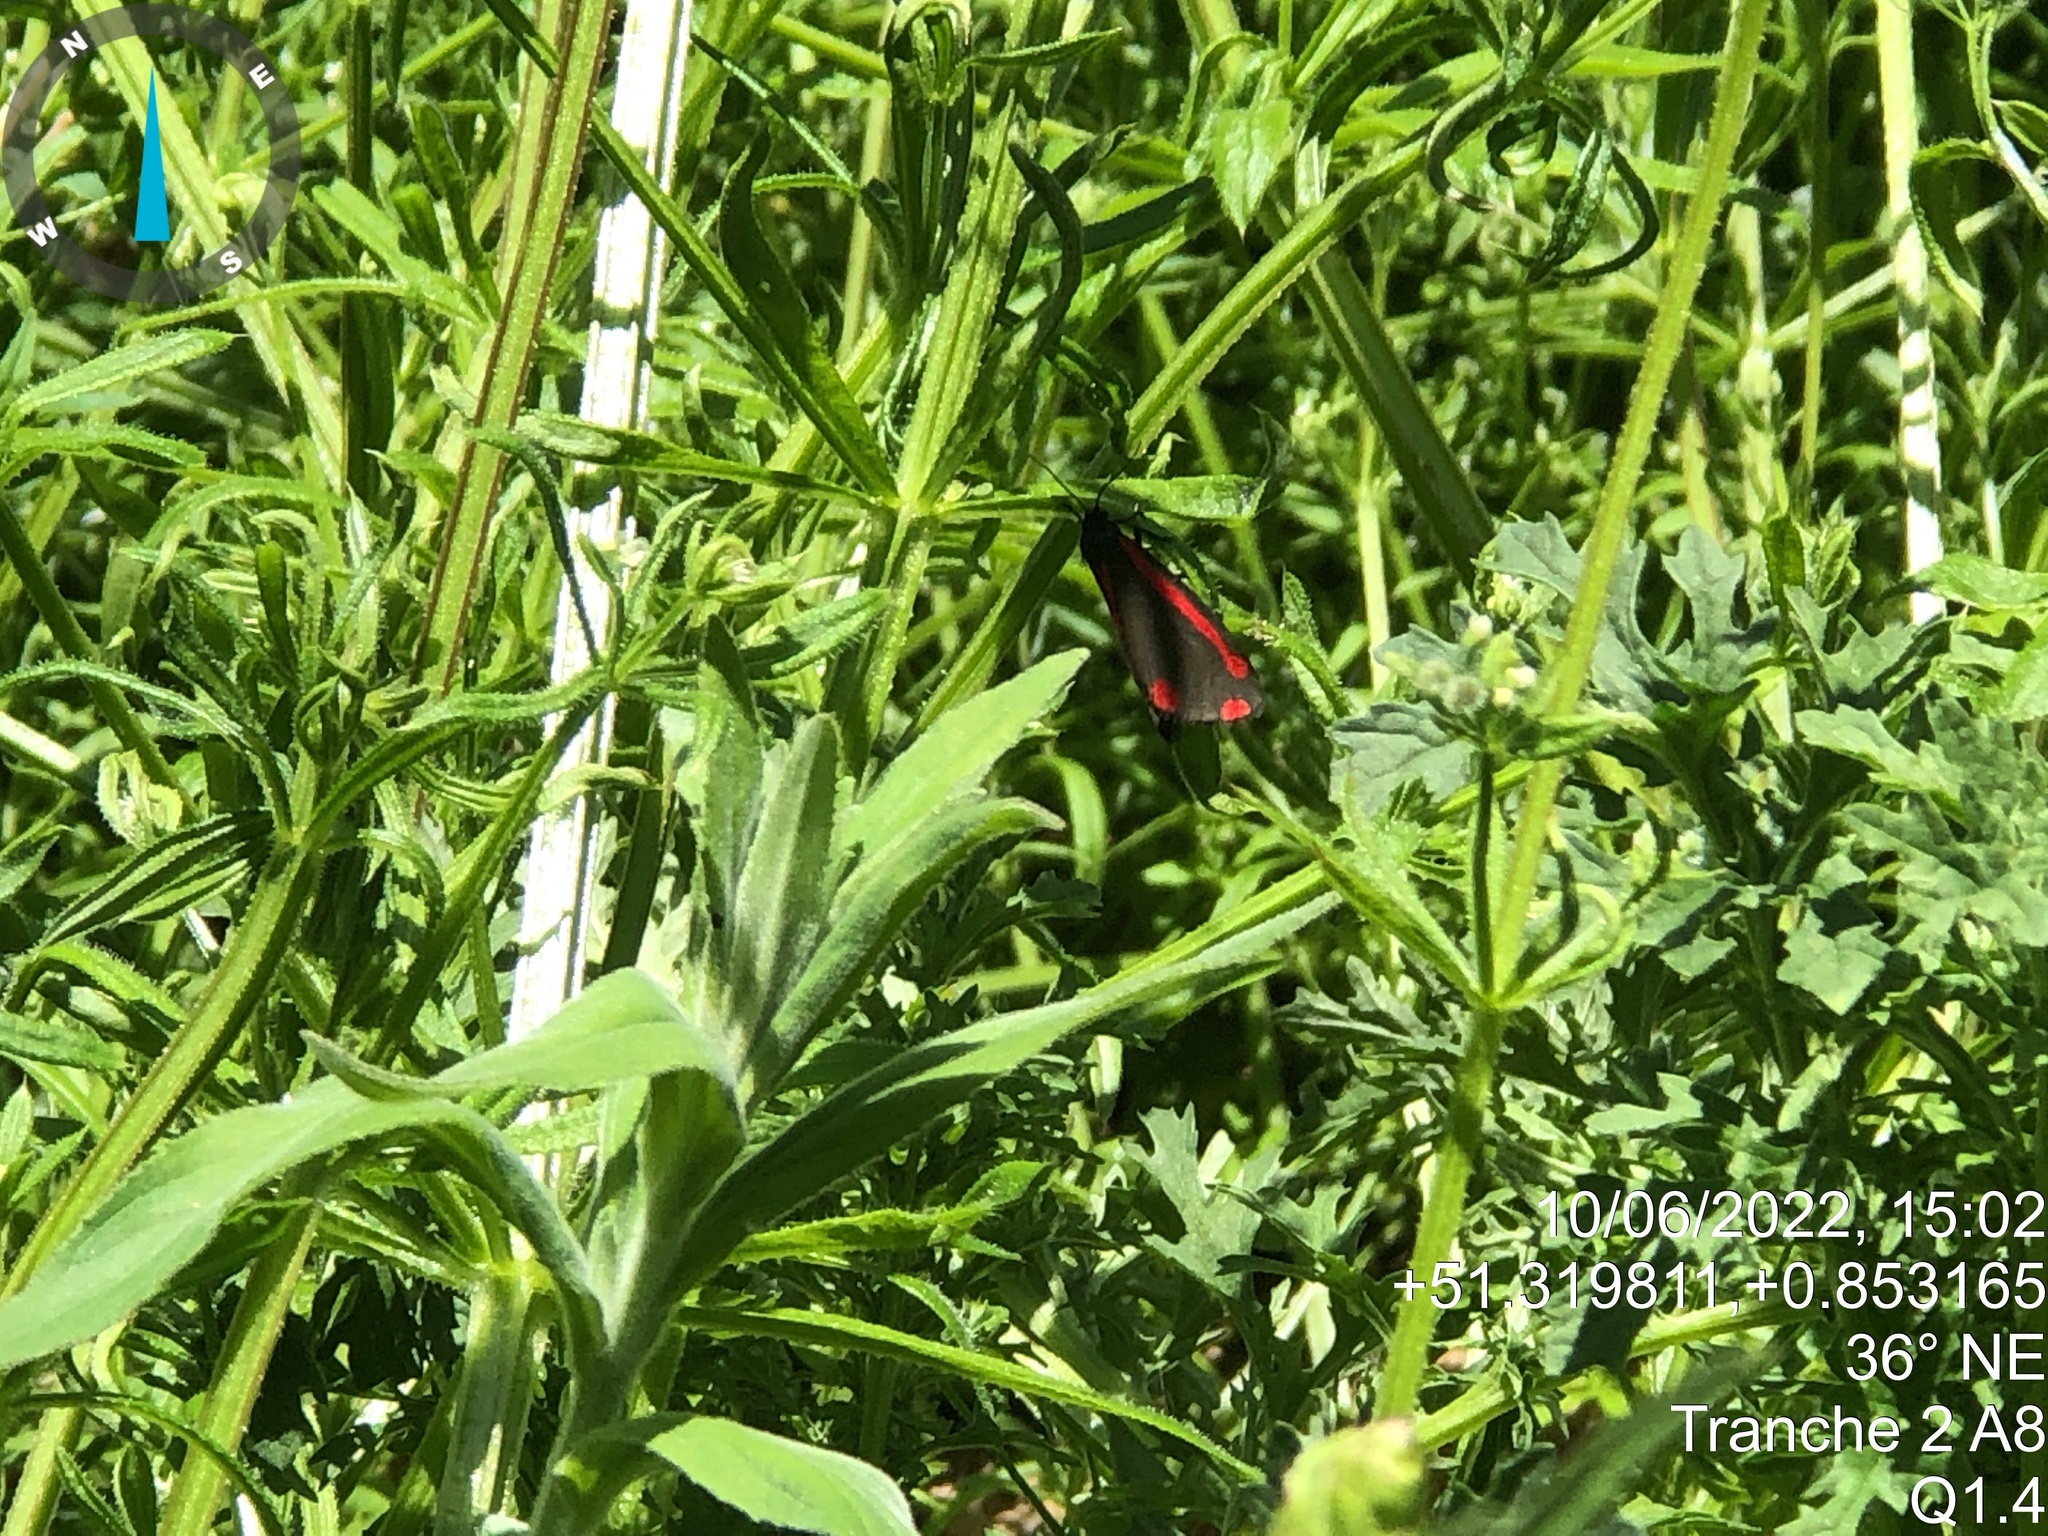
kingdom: Animalia
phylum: Arthropoda
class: Insecta
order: Lepidoptera
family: Erebidae
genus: Tyria
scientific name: Tyria jacobaeae
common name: Cinnabar
